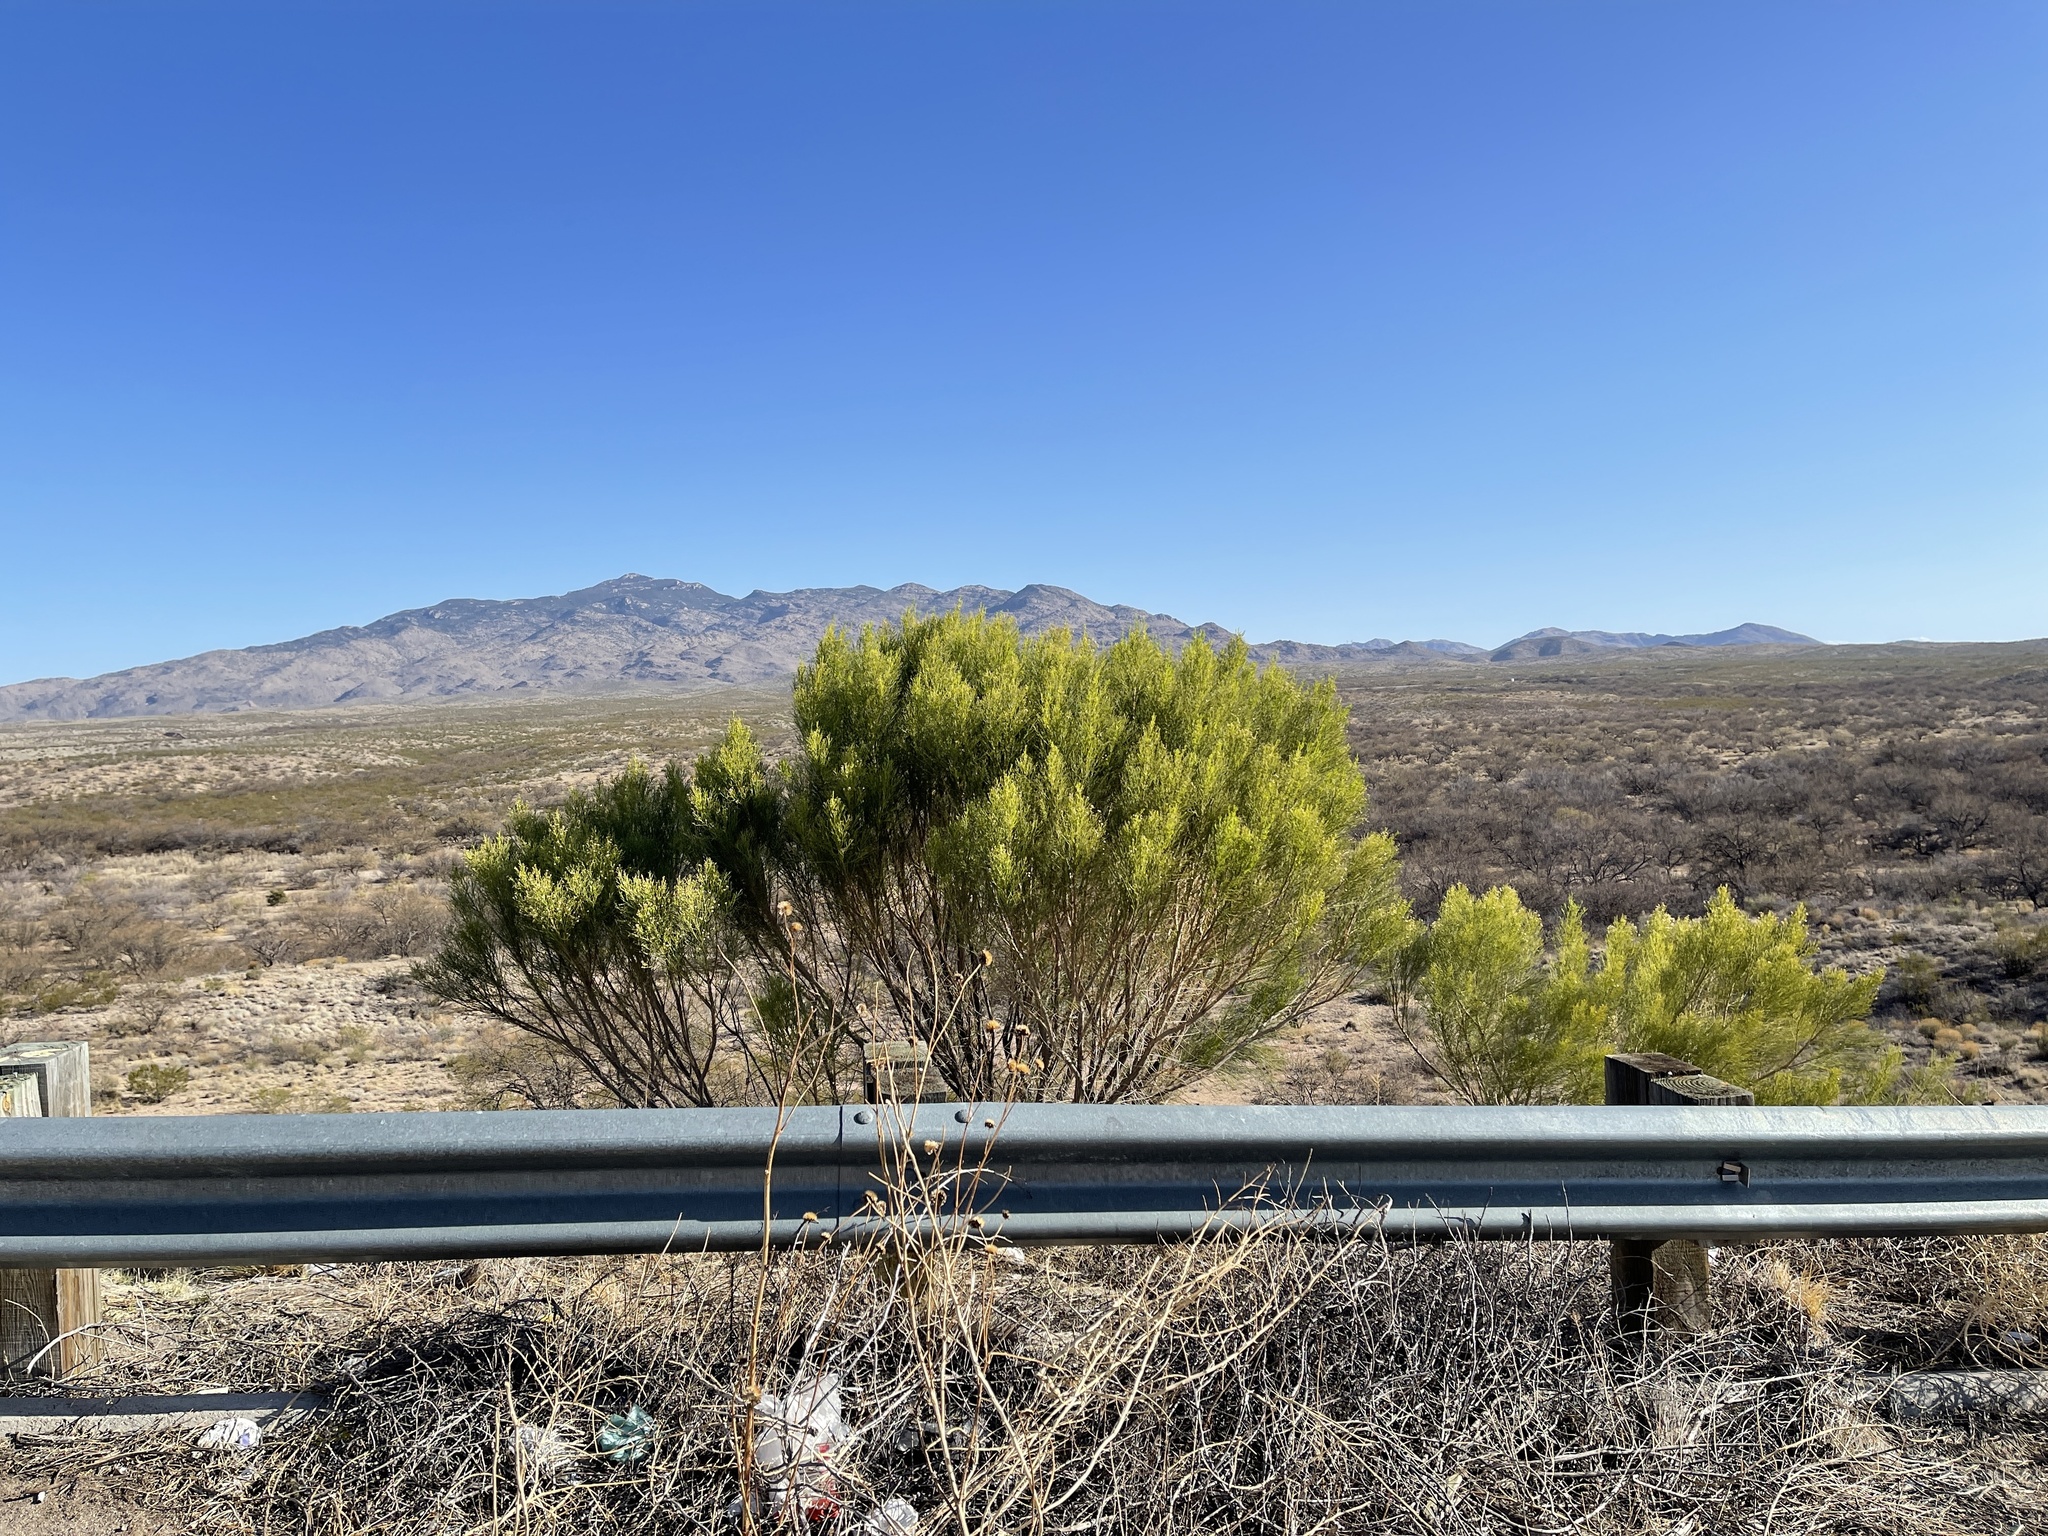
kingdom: Plantae
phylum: Tracheophyta
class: Magnoliopsida
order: Asterales
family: Asteraceae
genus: Baccharis
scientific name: Baccharis sarothroides
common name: Desert-broom
